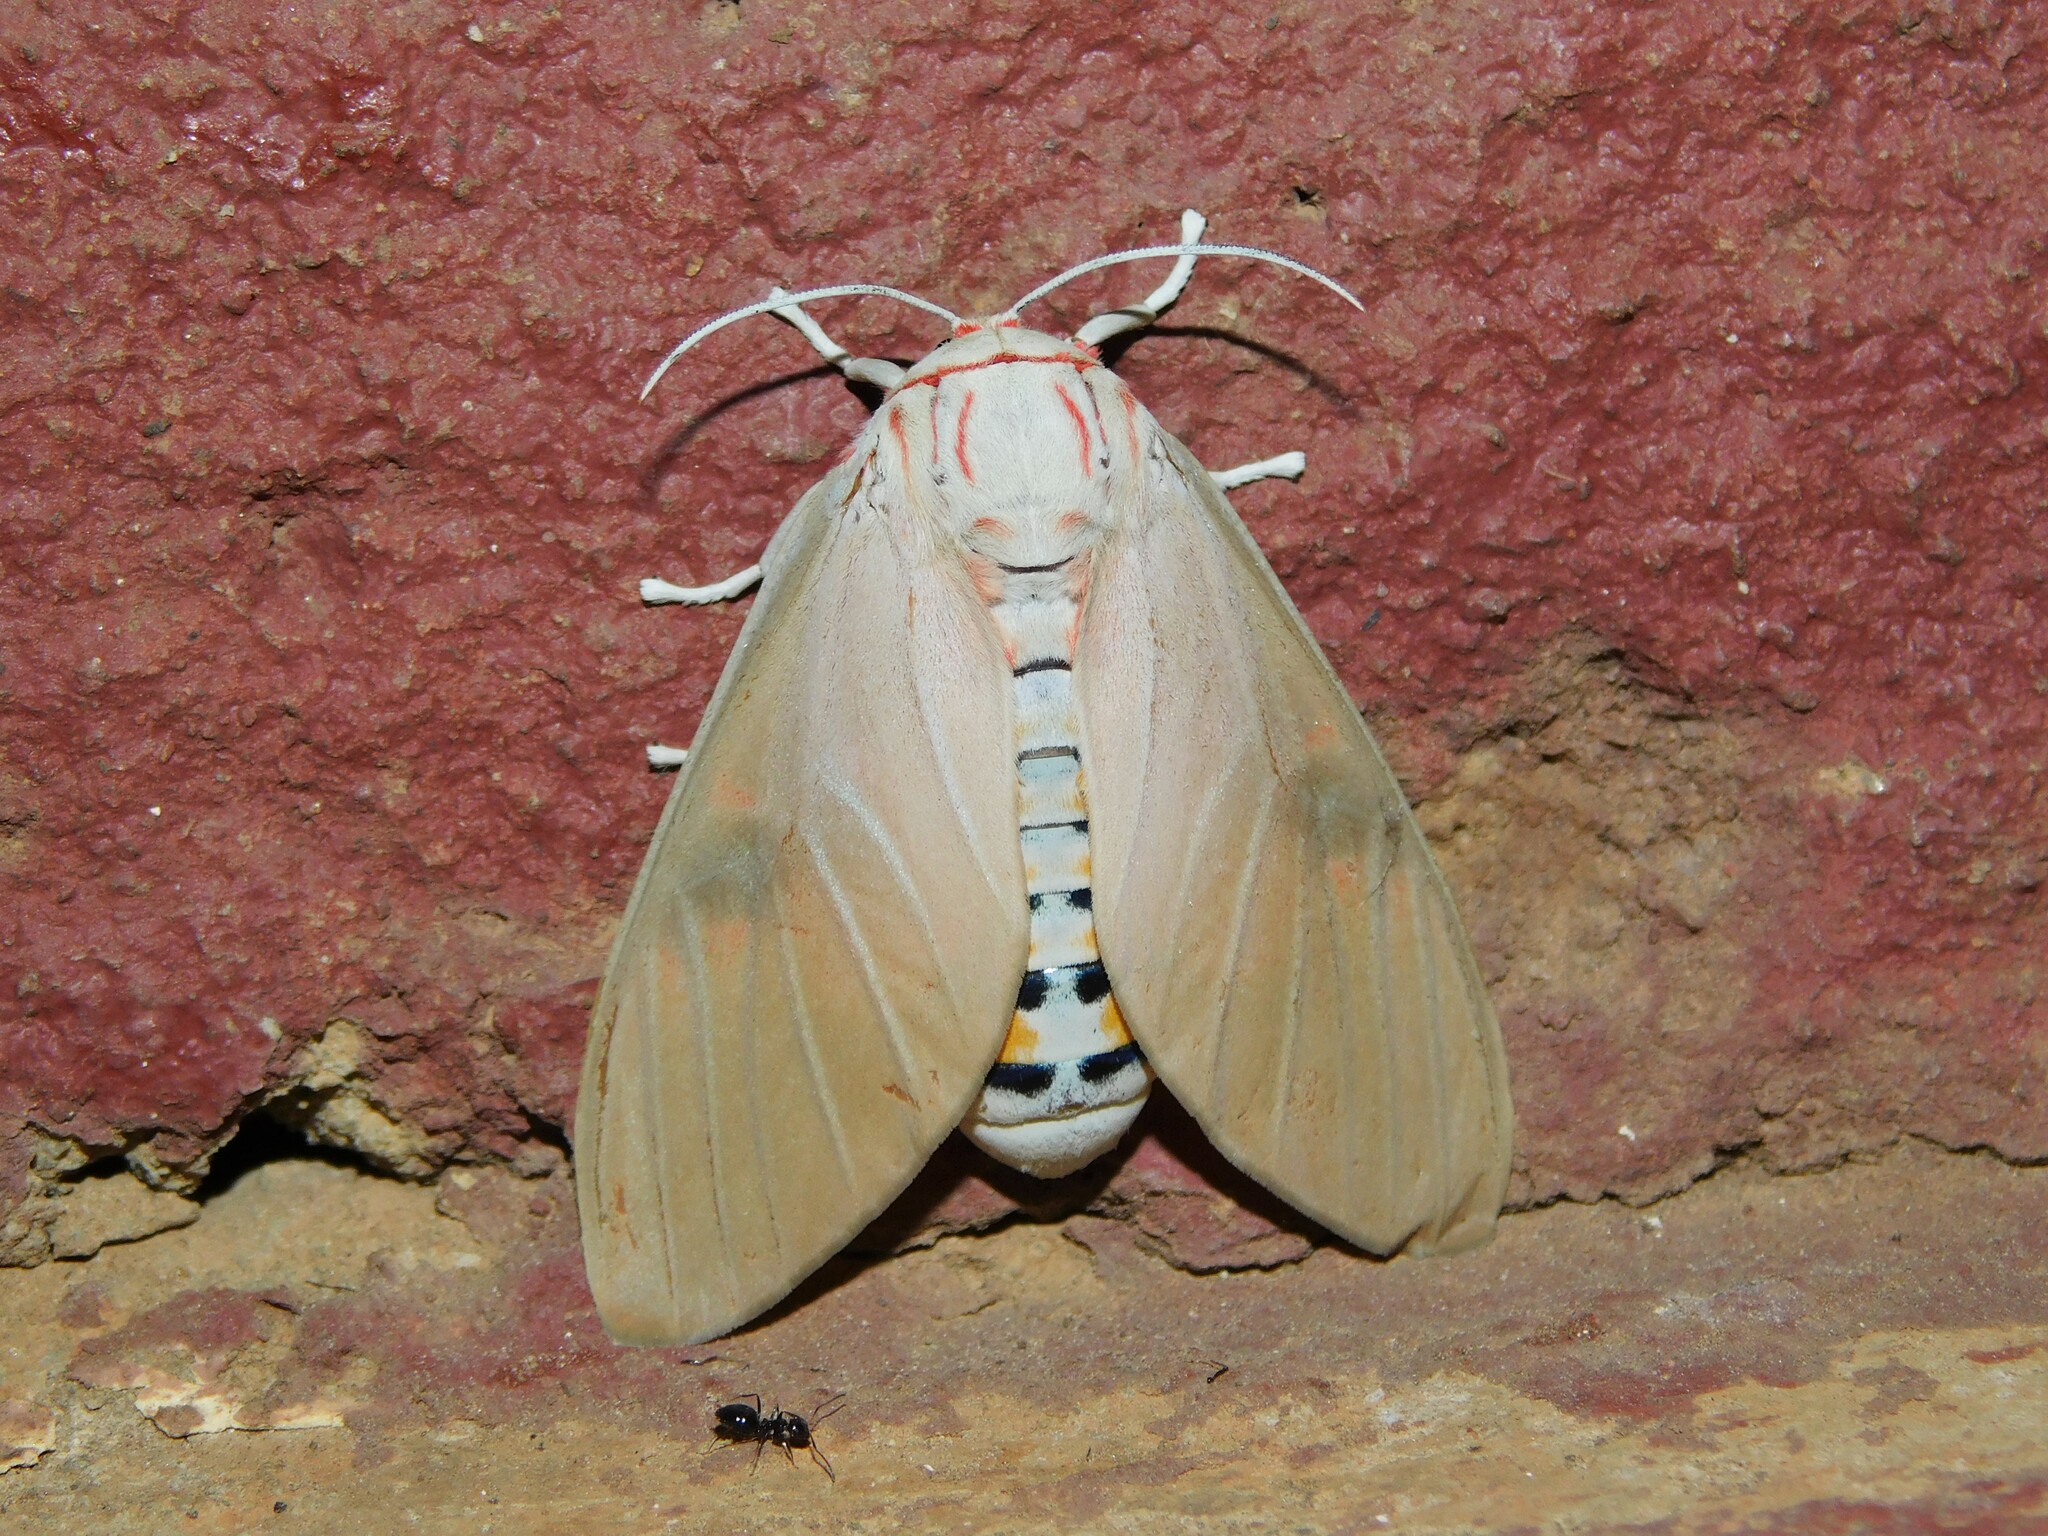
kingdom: Animalia
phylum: Arthropoda
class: Insecta
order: Lepidoptera
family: Erebidae
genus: Balacra
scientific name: Balacra herona
